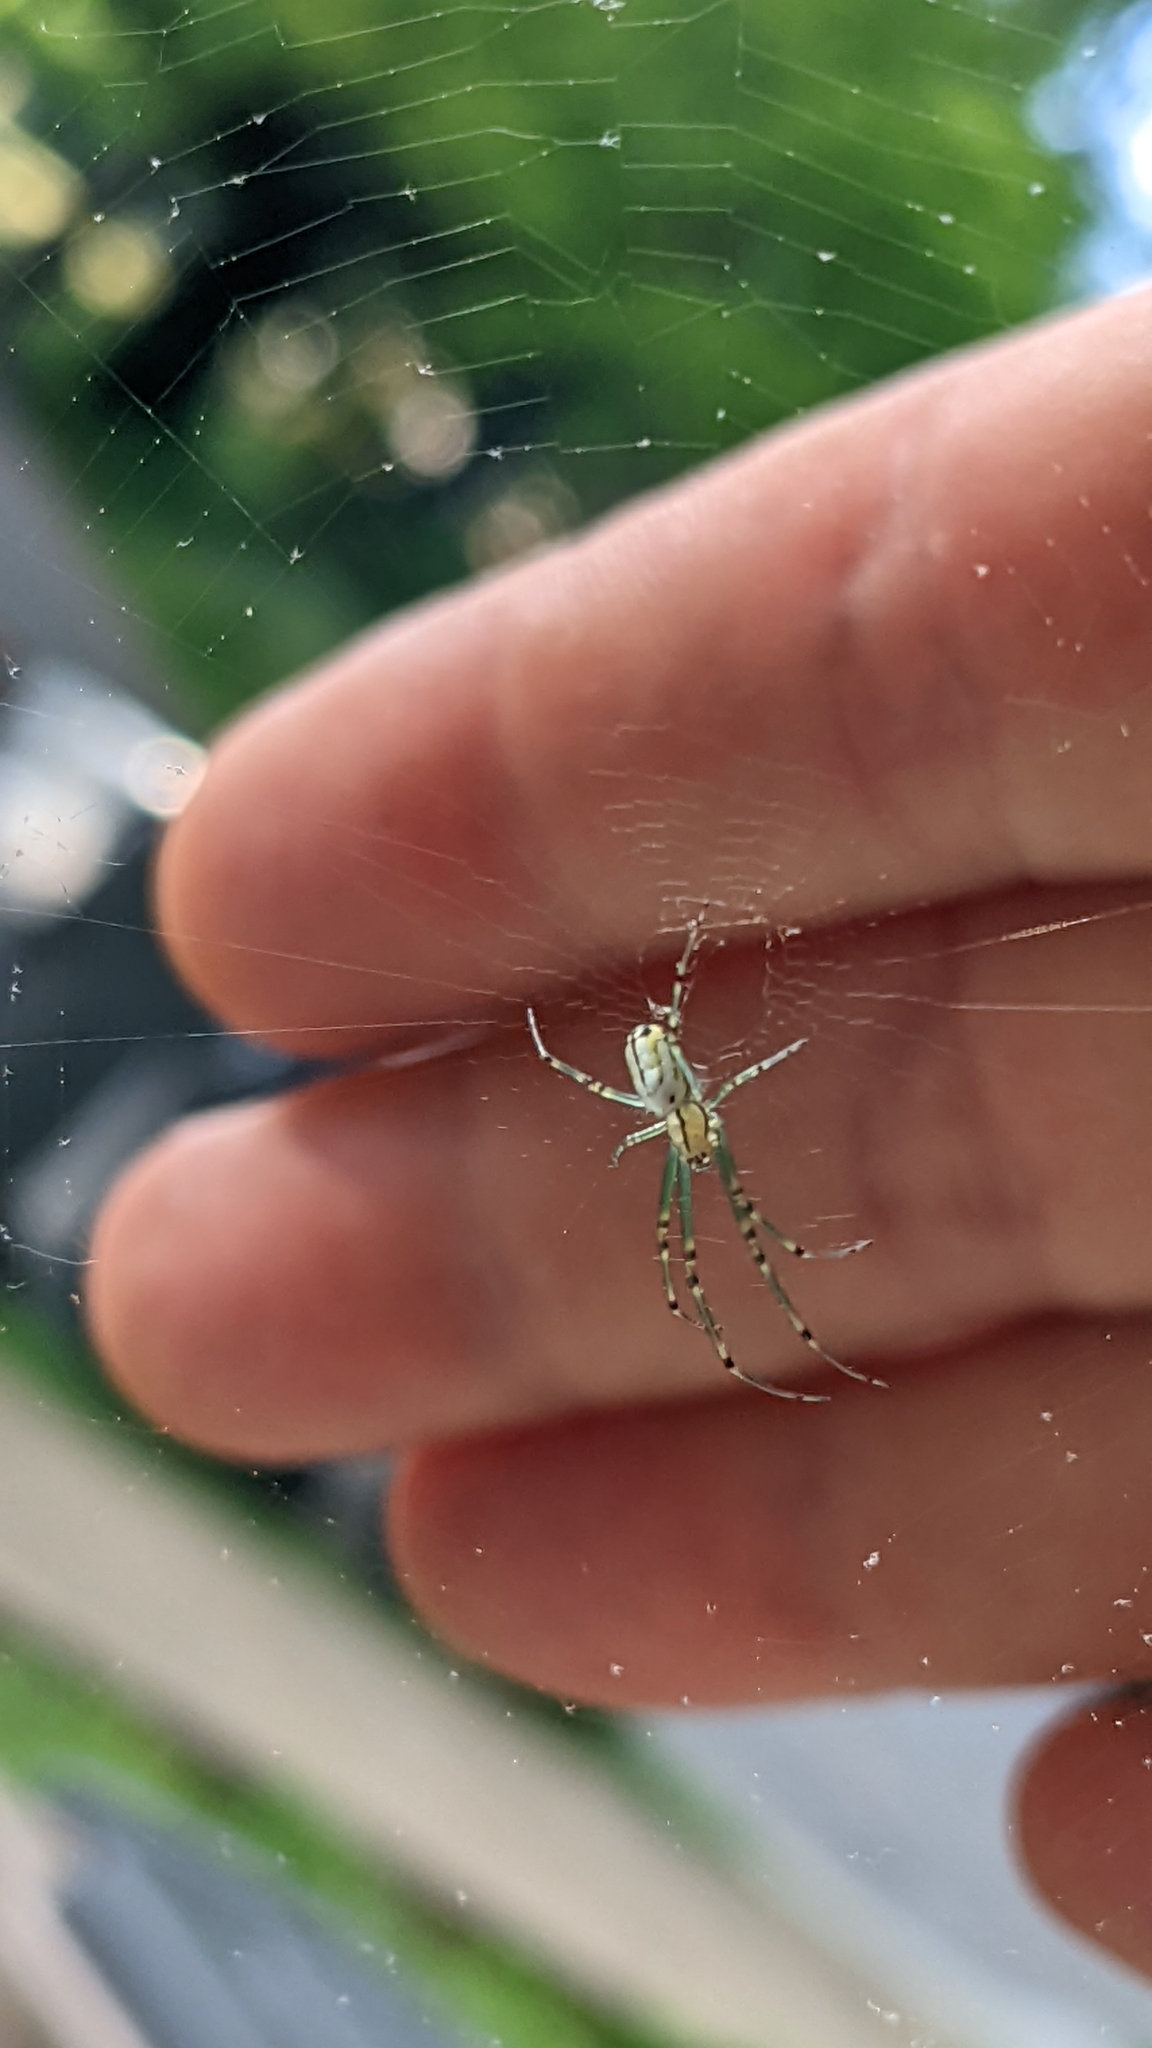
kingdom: Animalia
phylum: Arthropoda
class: Arachnida
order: Araneae
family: Tetragnathidae
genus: Leucauge
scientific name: Leucauge venusta
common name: Longjawed orb weavers
